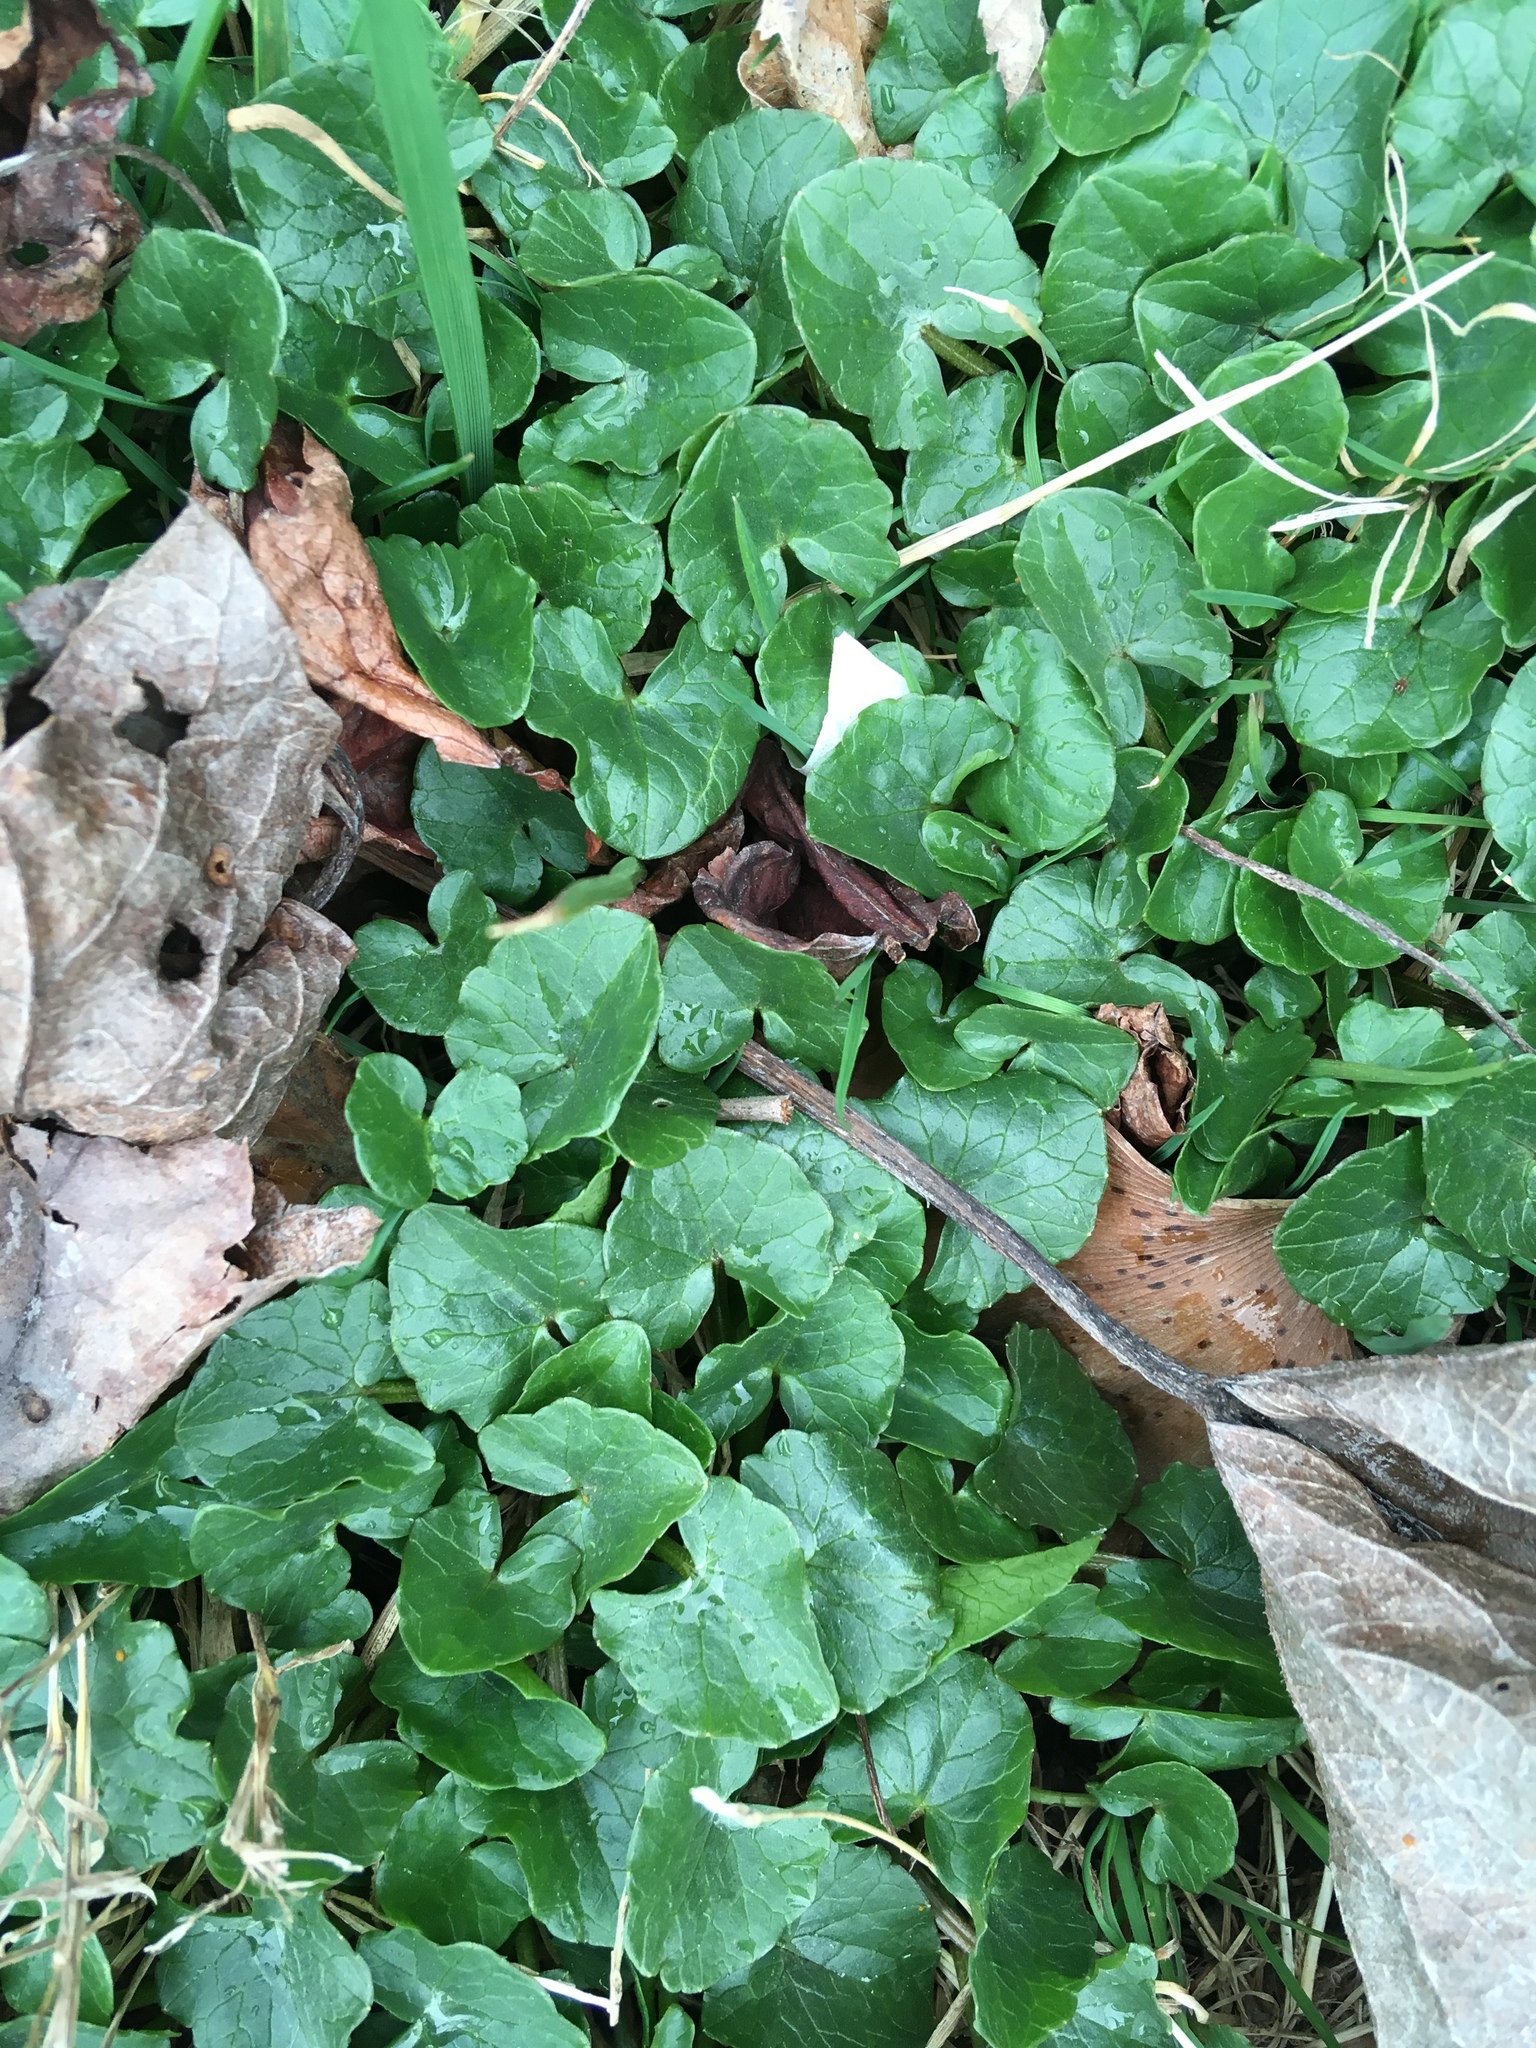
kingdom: Plantae
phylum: Tracheophyta
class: Magnoliopsida
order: Ranunculales
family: Ranunculaceae
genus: Ficaria
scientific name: Ficaria verna
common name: Lesser celandine
